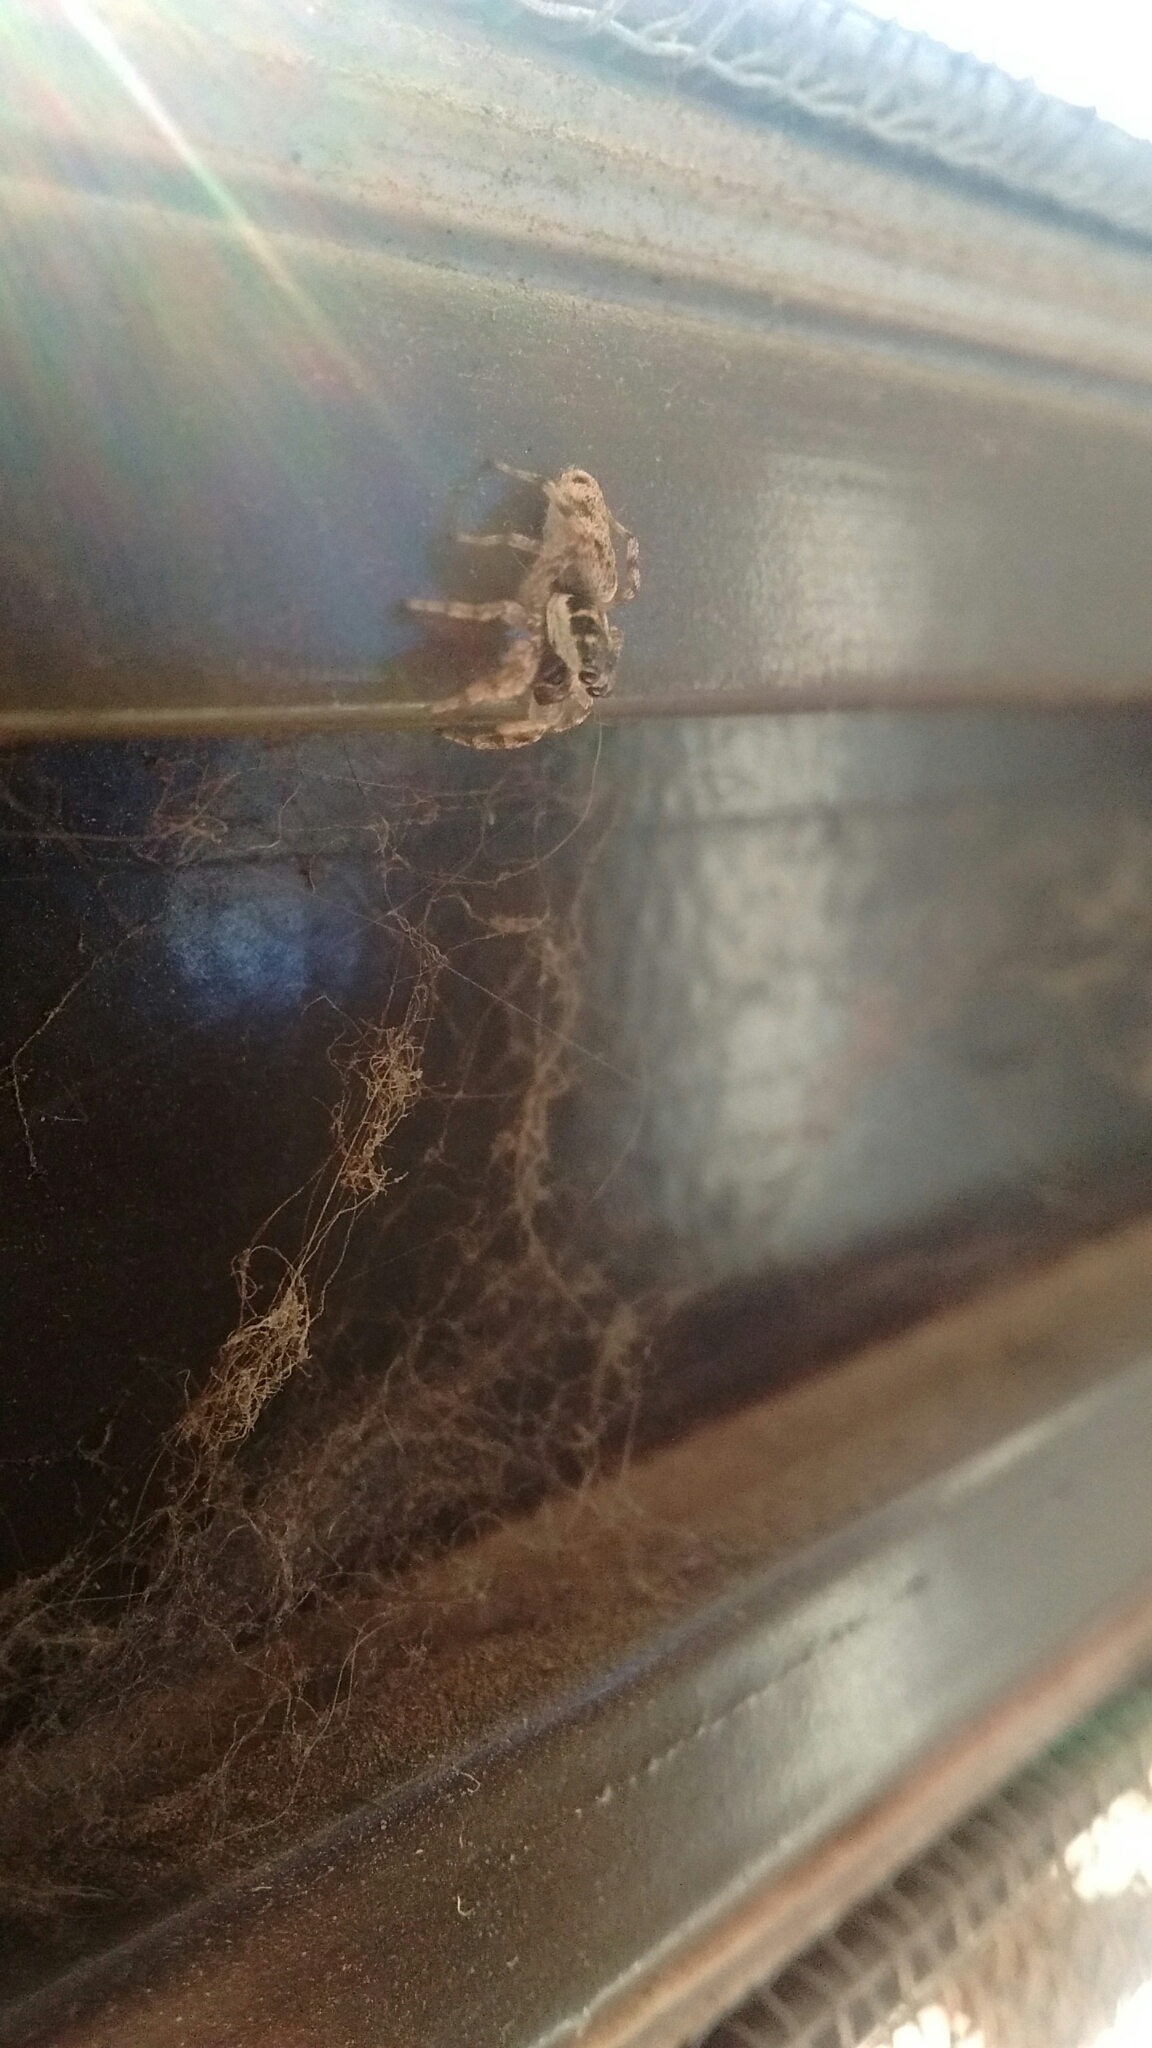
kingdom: Animalia
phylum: Arthropoda
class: Arachnida
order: Araneae
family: Salticidae
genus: Salticus
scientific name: Salticus mutabilis
